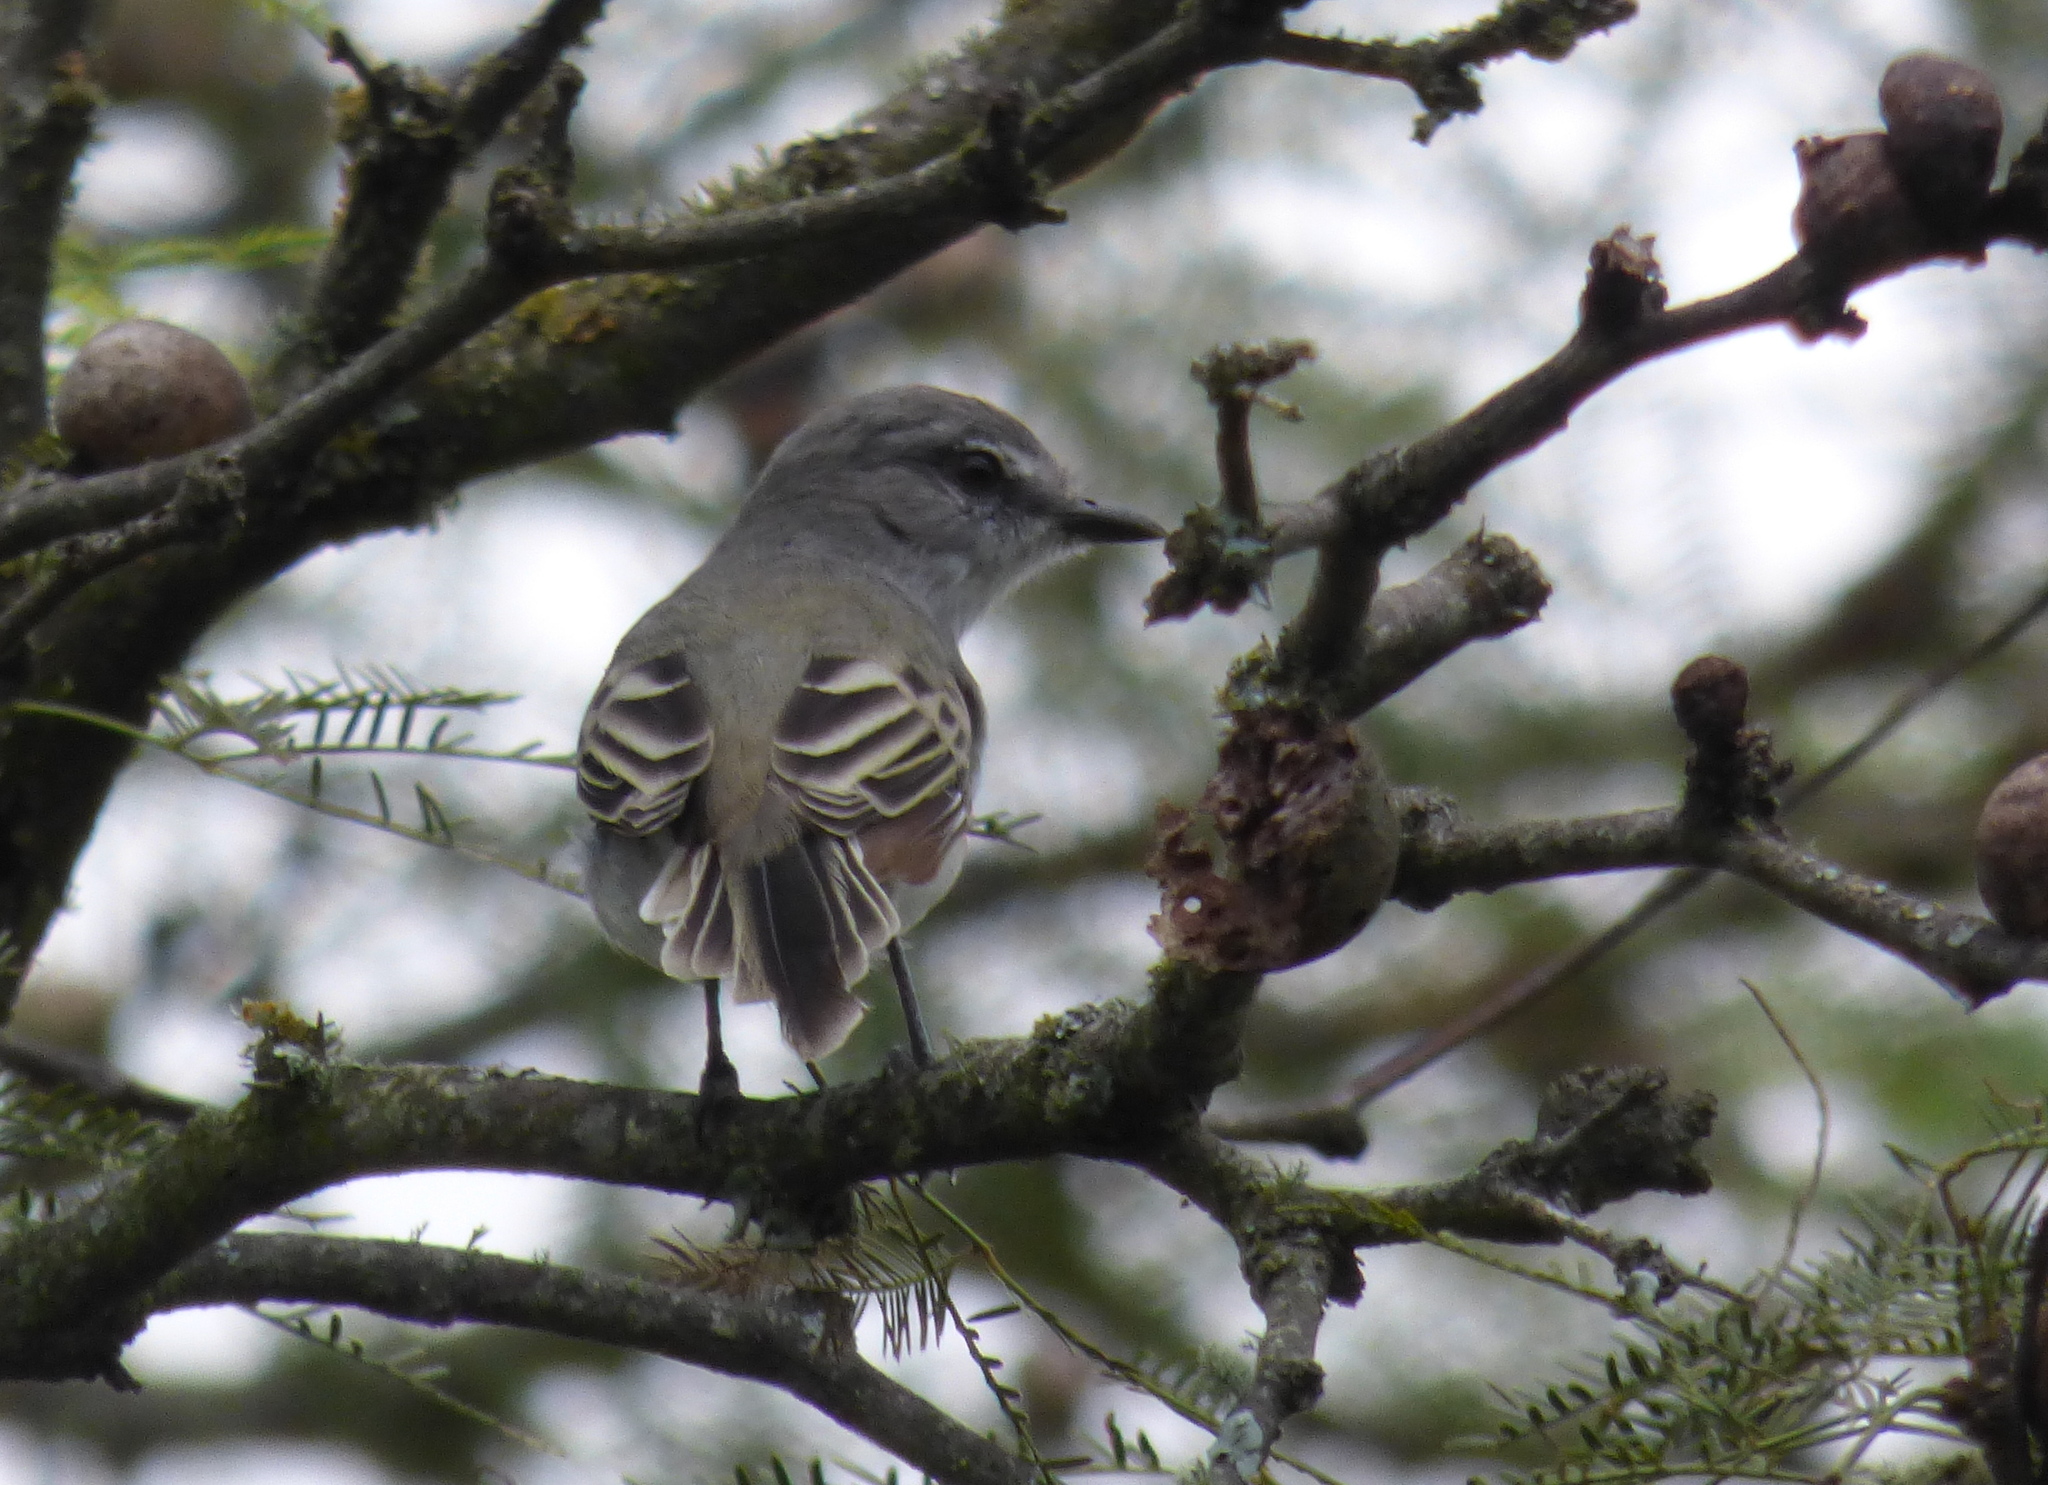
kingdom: Animalia
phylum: Chordata
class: Aves
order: Passeriformes
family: Tyrannidae
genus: Suiriri
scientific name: Suiriri suiriri
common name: Suiriri flycatcher
